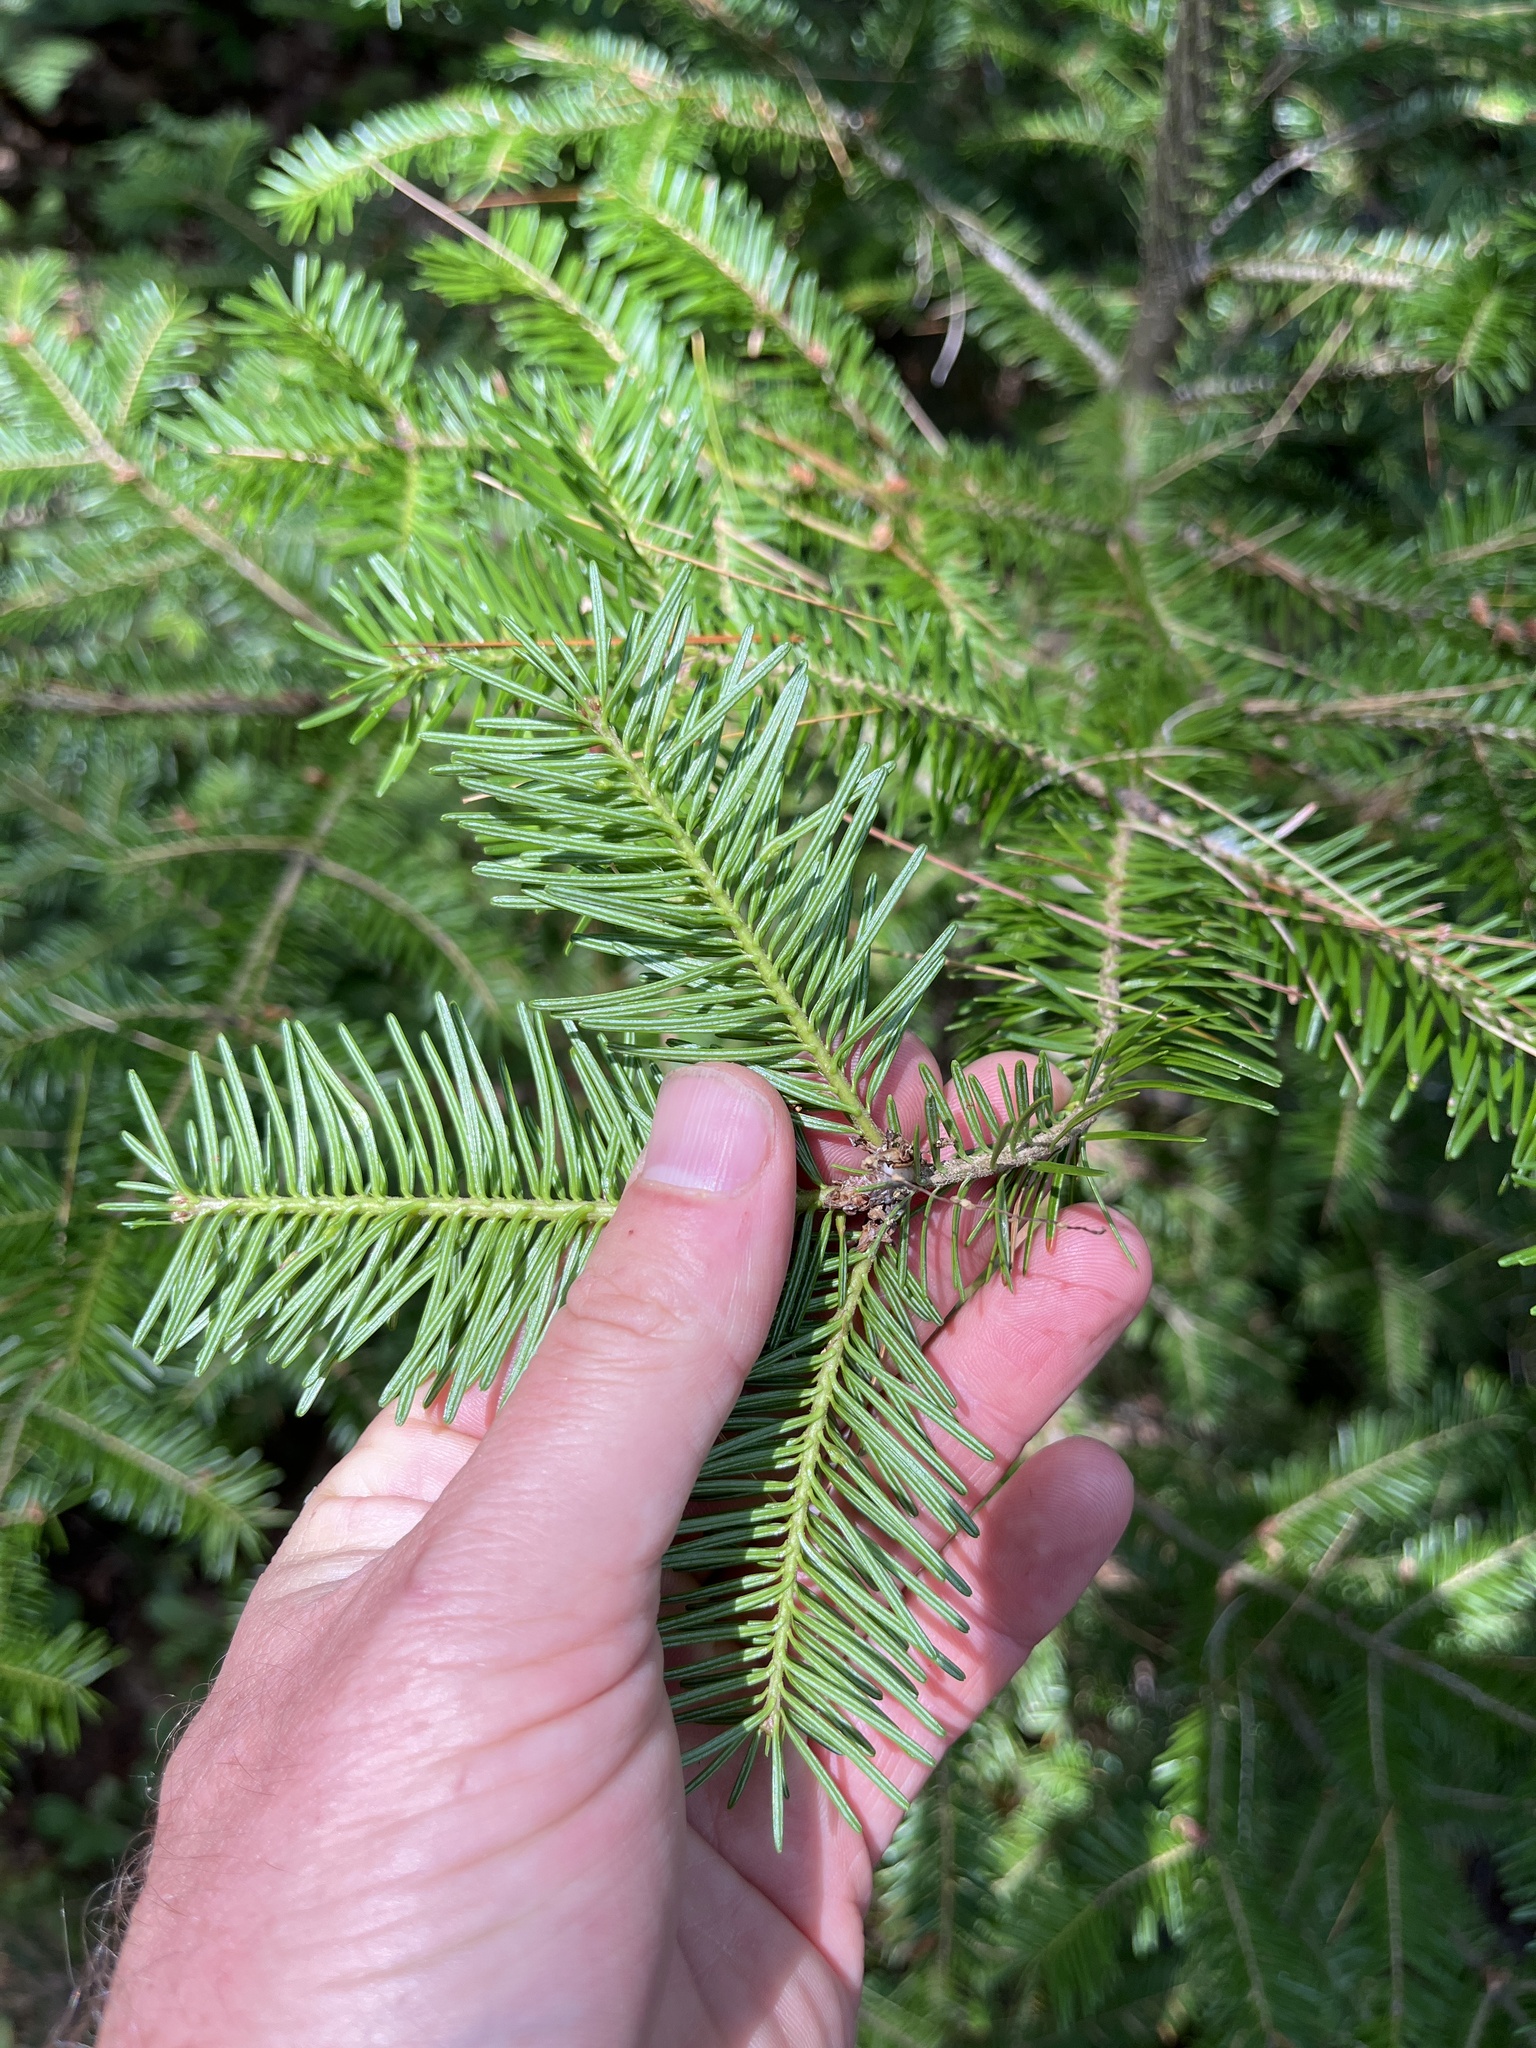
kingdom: Plantae
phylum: Tracheophyta
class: Pinopsida
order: Pinales
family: Pinaceae
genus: Abies
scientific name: Abies balsamea
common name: Balsam fir
